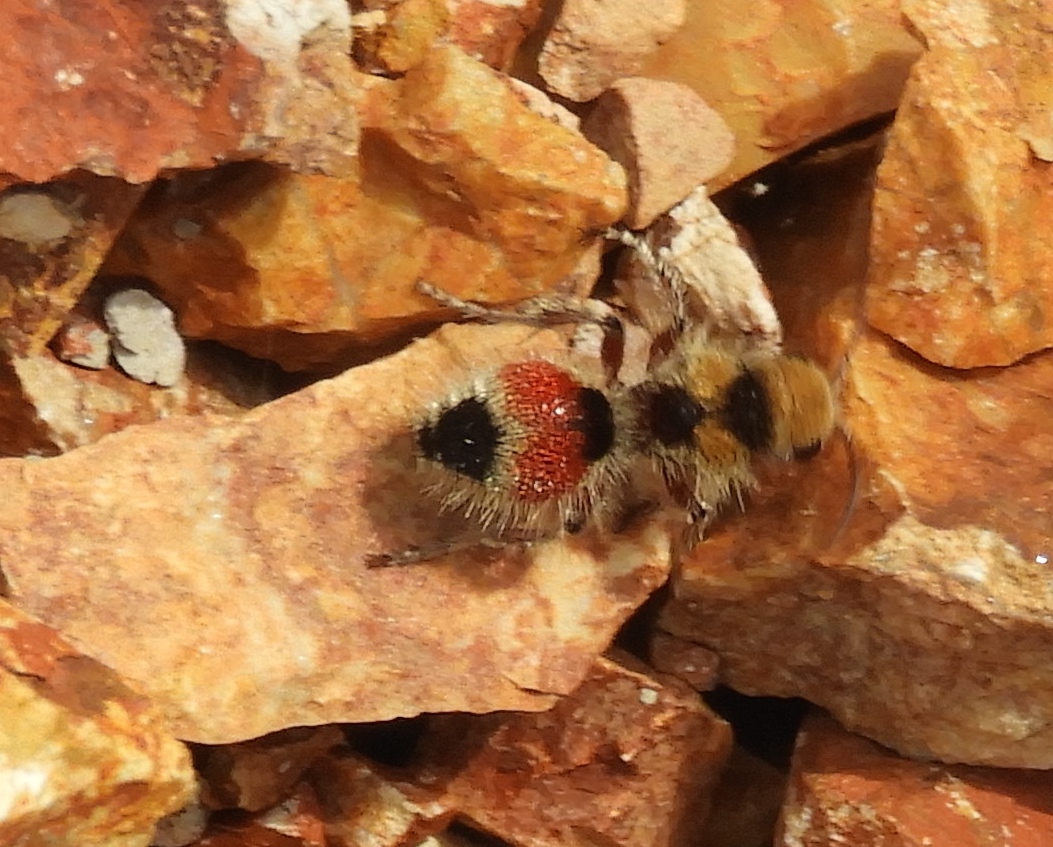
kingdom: Animalia
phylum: Arthropoda
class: Insecta
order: Hymenoptera
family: Mutillidae
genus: Dasymutilla
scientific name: Dasymutilla foxi
